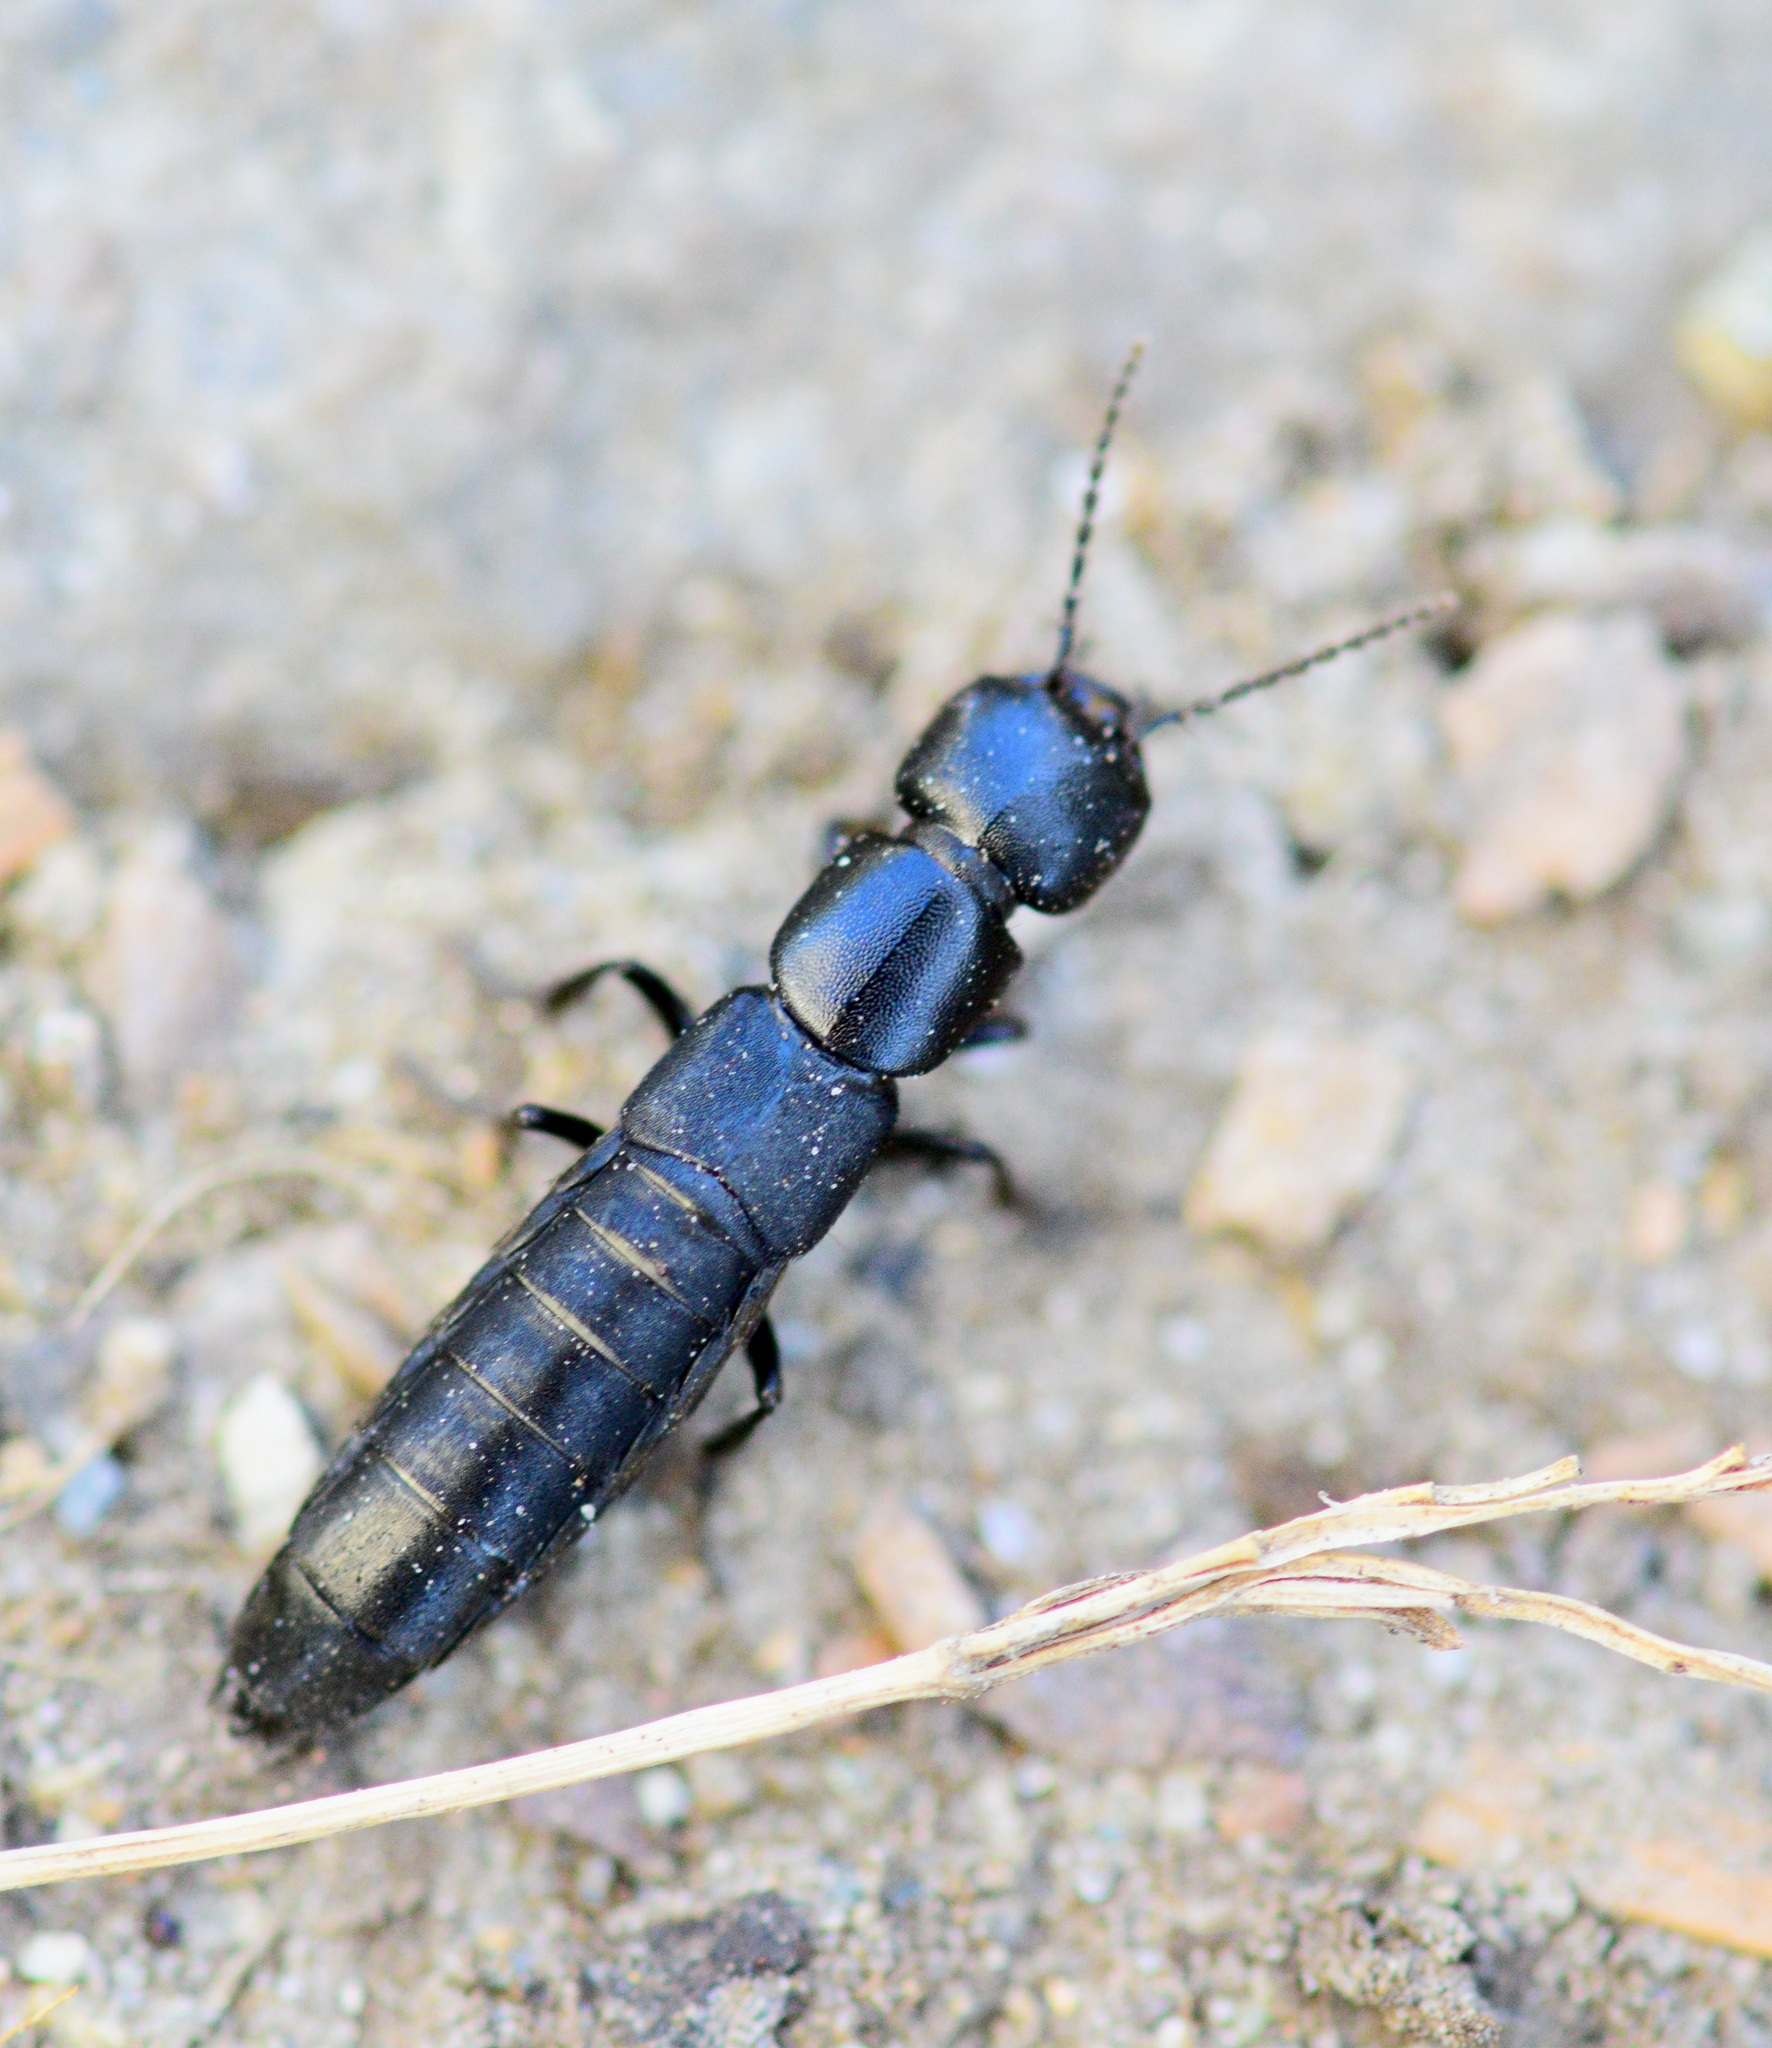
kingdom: Animalia
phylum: Arthropoda
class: Insecta
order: Coleoptera
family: Staphylinidae
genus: Ocypus
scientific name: Ocypus nitens
